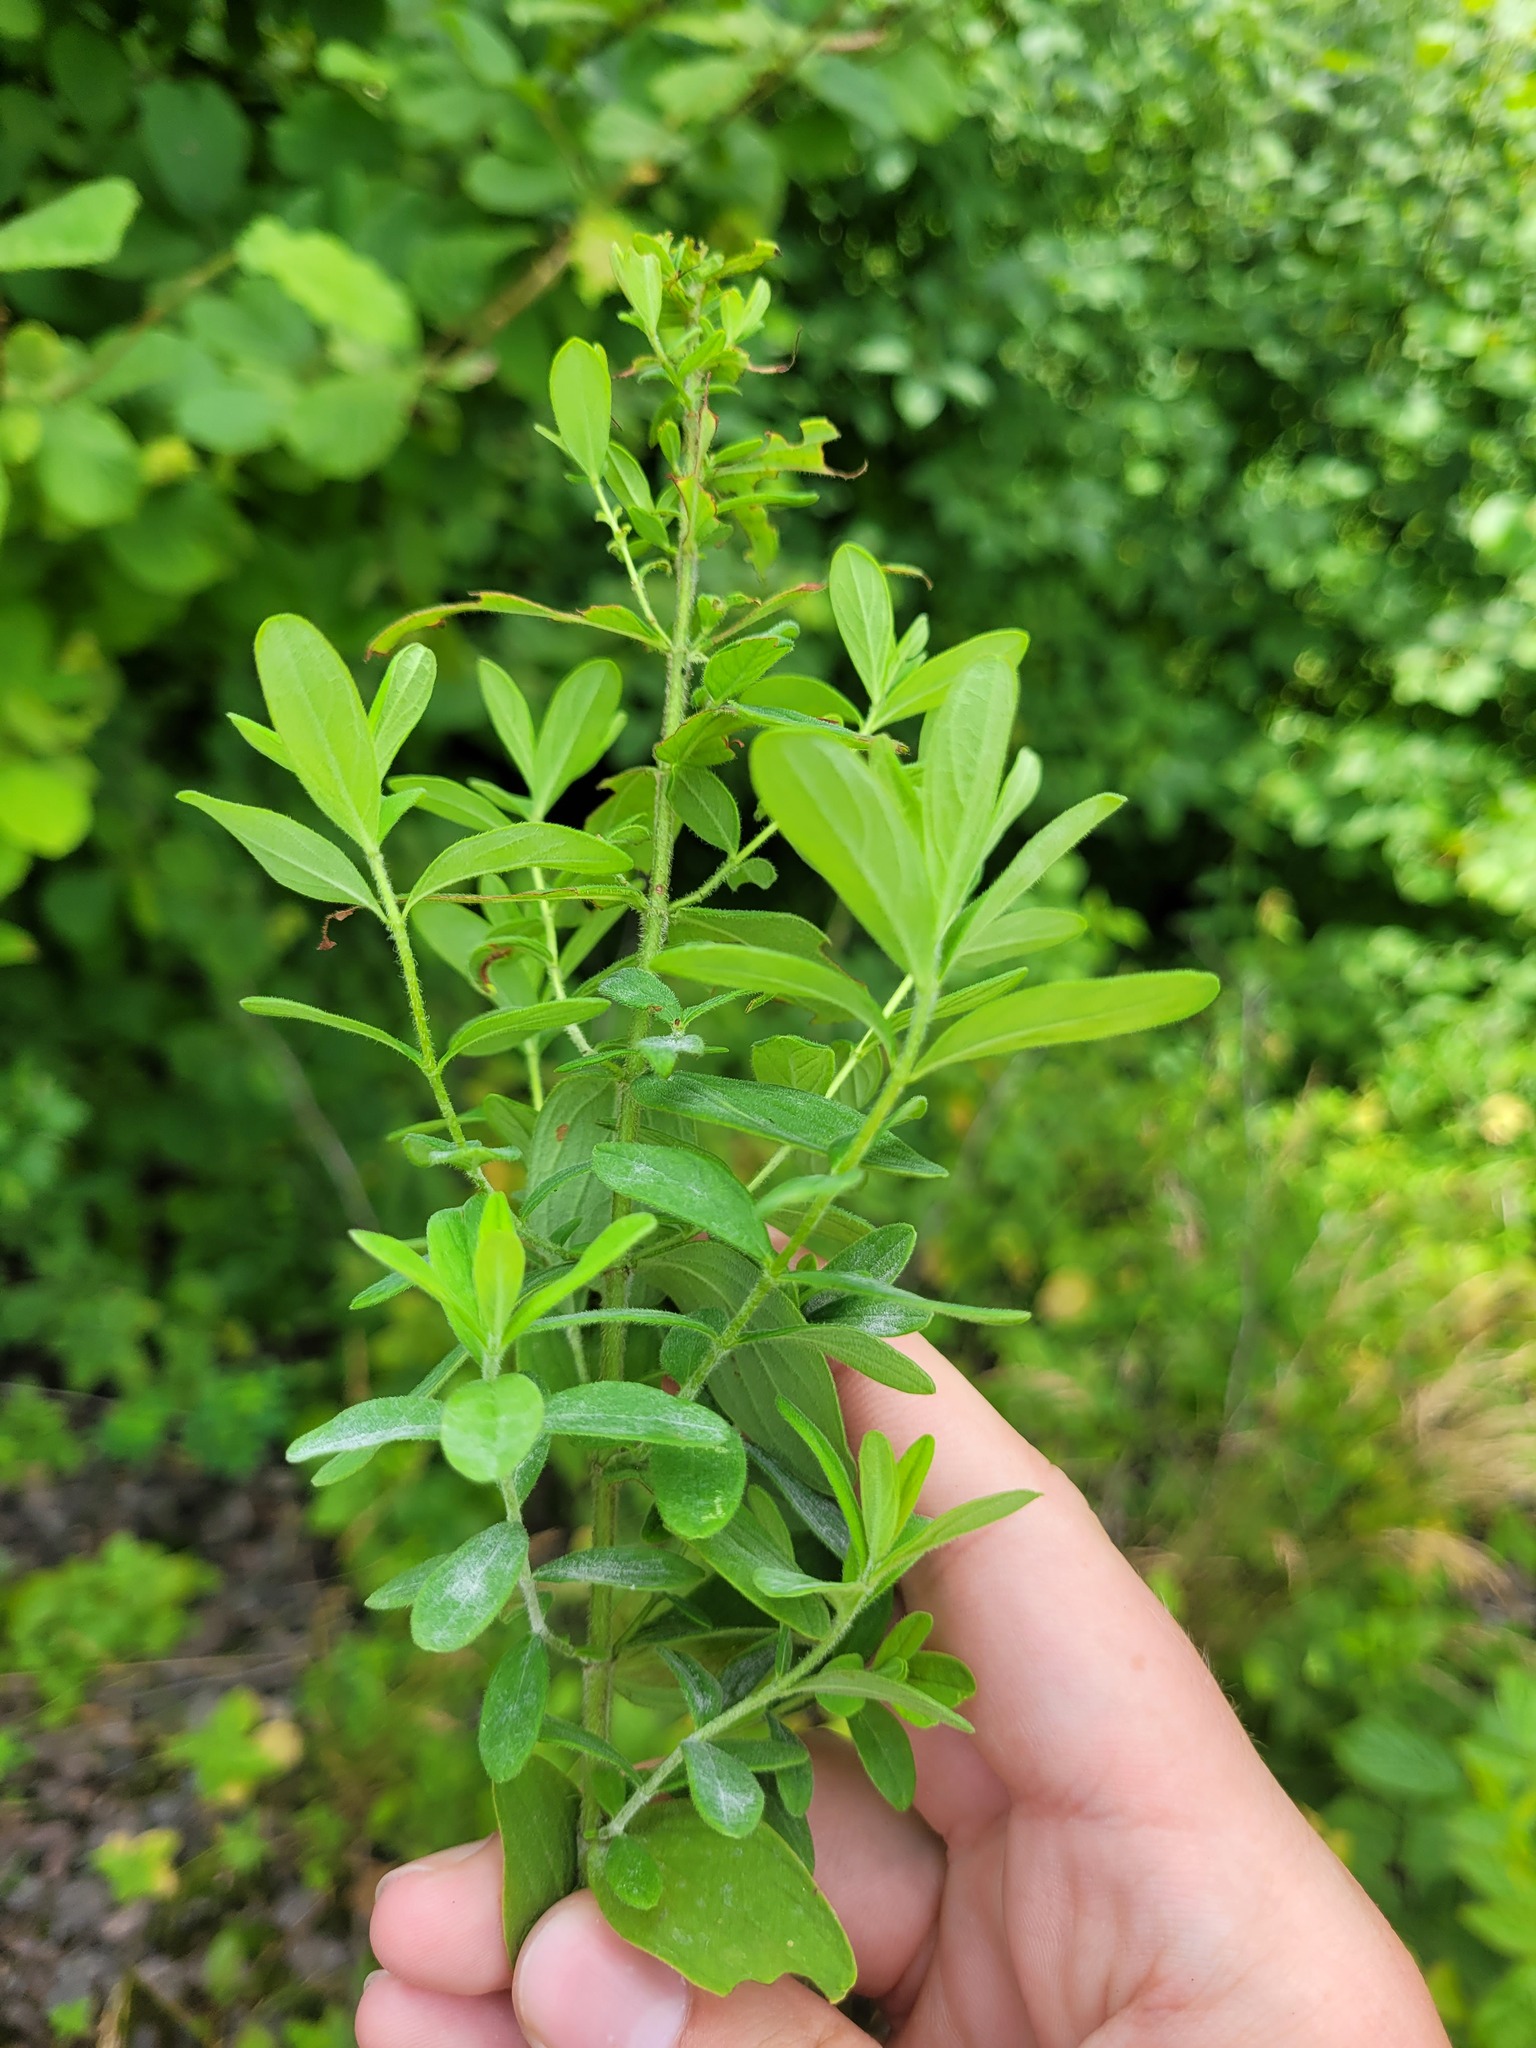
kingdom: Plantae
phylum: Tracheophyta
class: Magnoliopsida
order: Malpighiales
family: Hypericaceae
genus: Hypericum
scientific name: Hypericum hirsutum
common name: Hairy st. john's-wort
